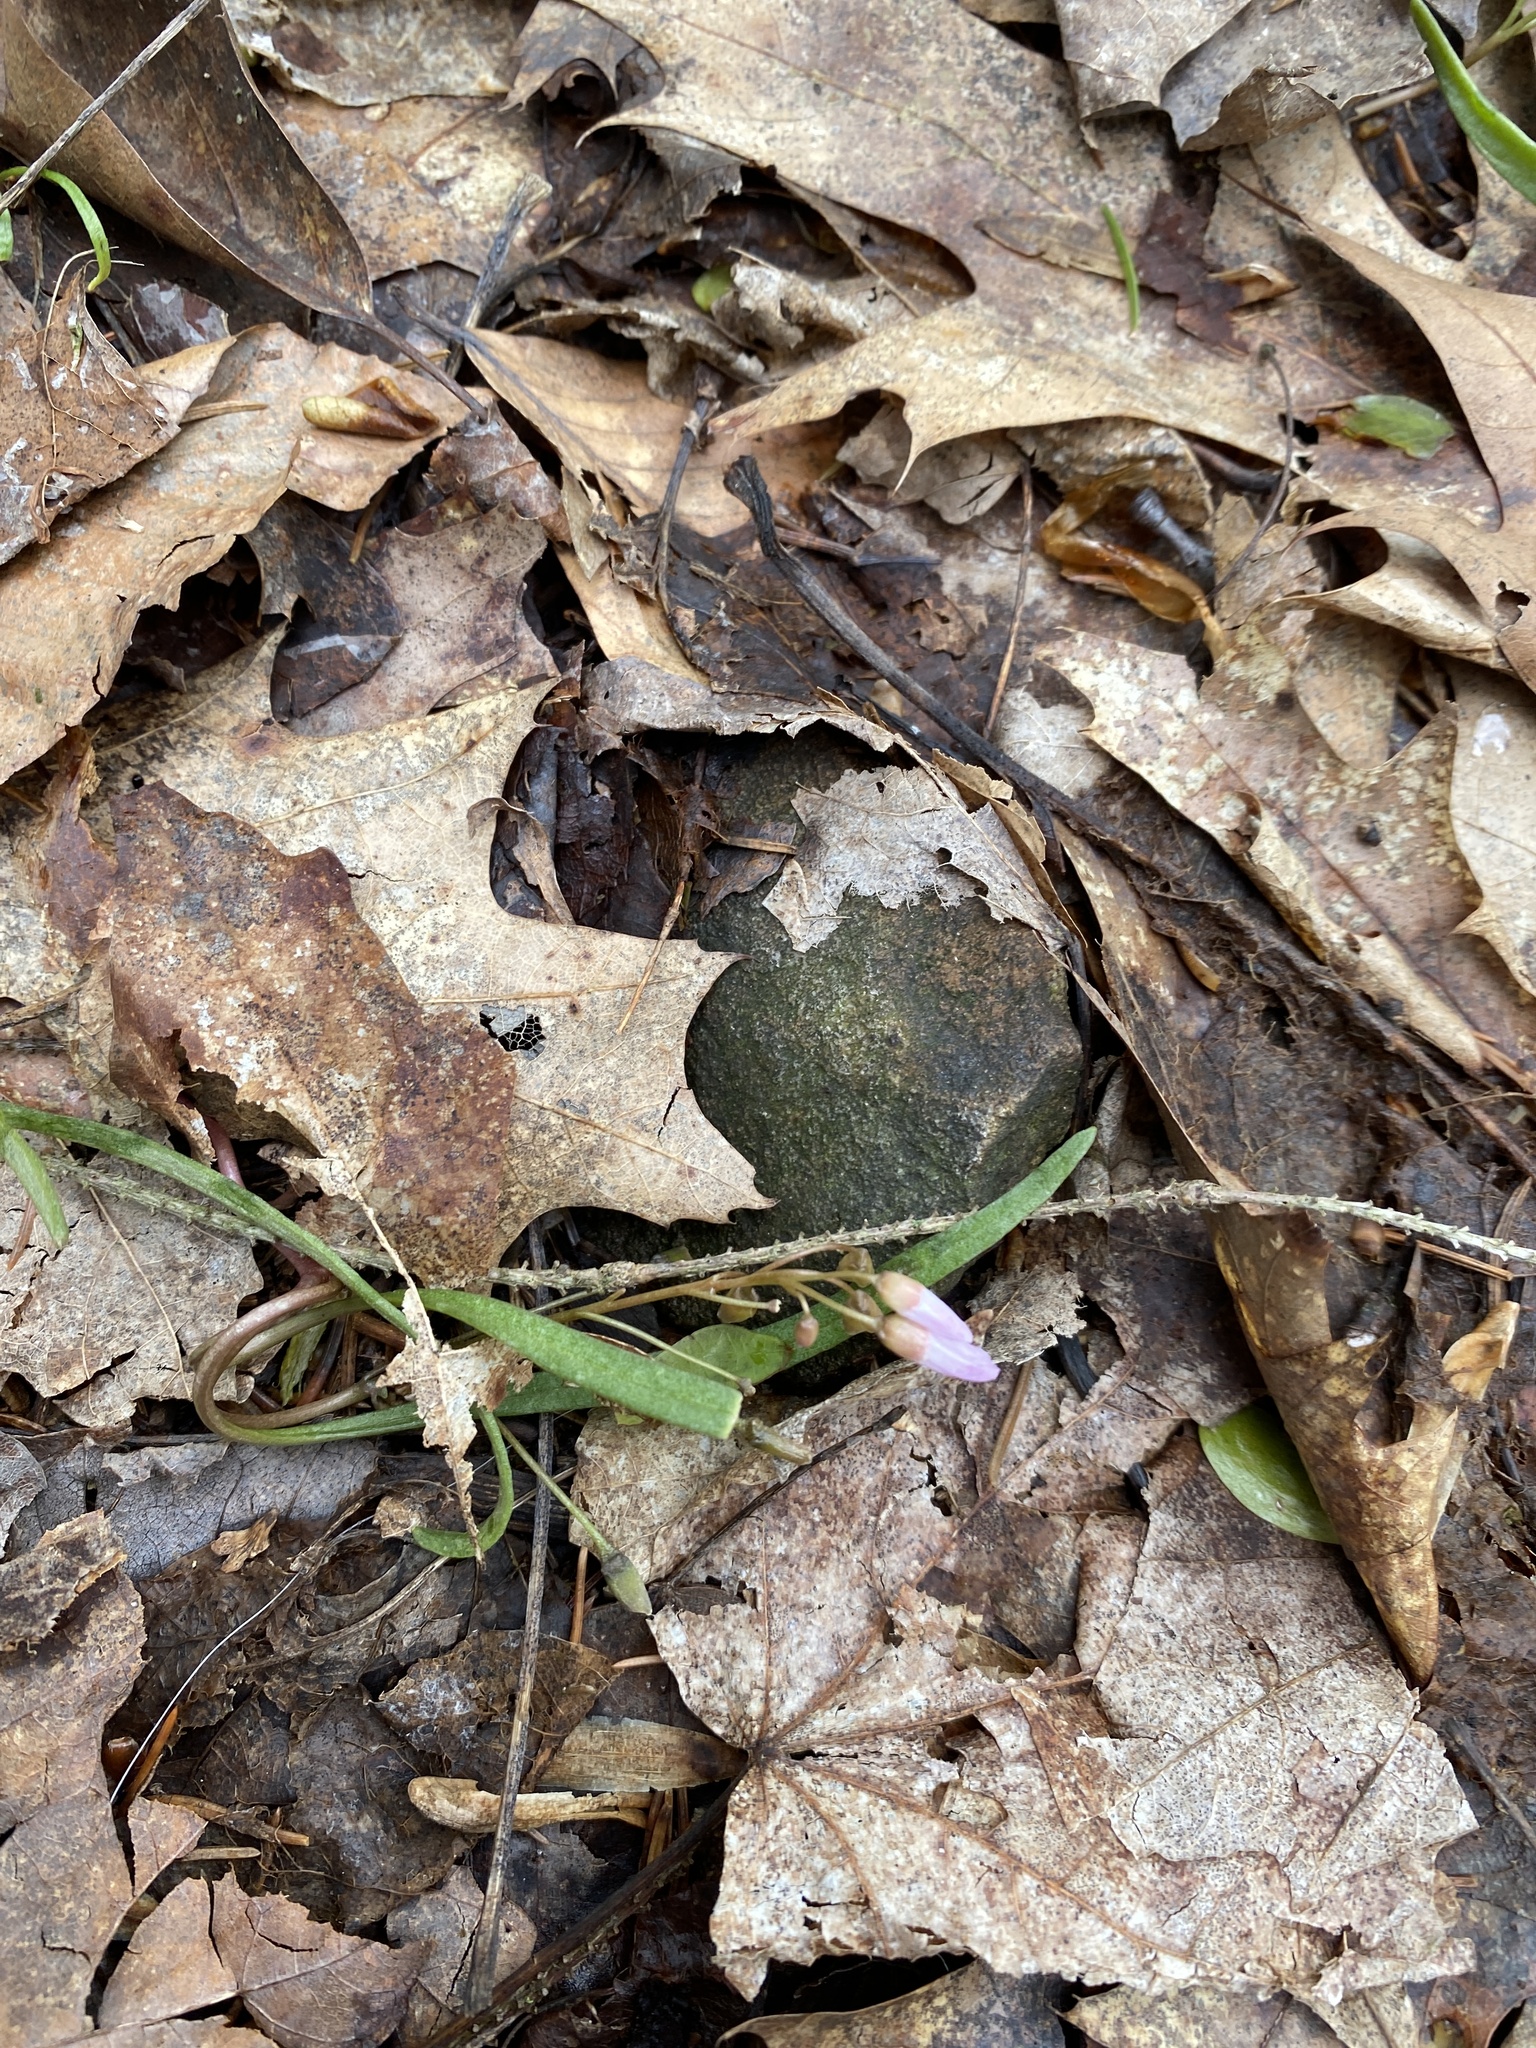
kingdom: Plantae
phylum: Tracheophyta
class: Magnoliopsida
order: Caryophyllales
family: Montiaceae
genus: Claytonia
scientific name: Claytonia virginica
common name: Virginia springbeauty
